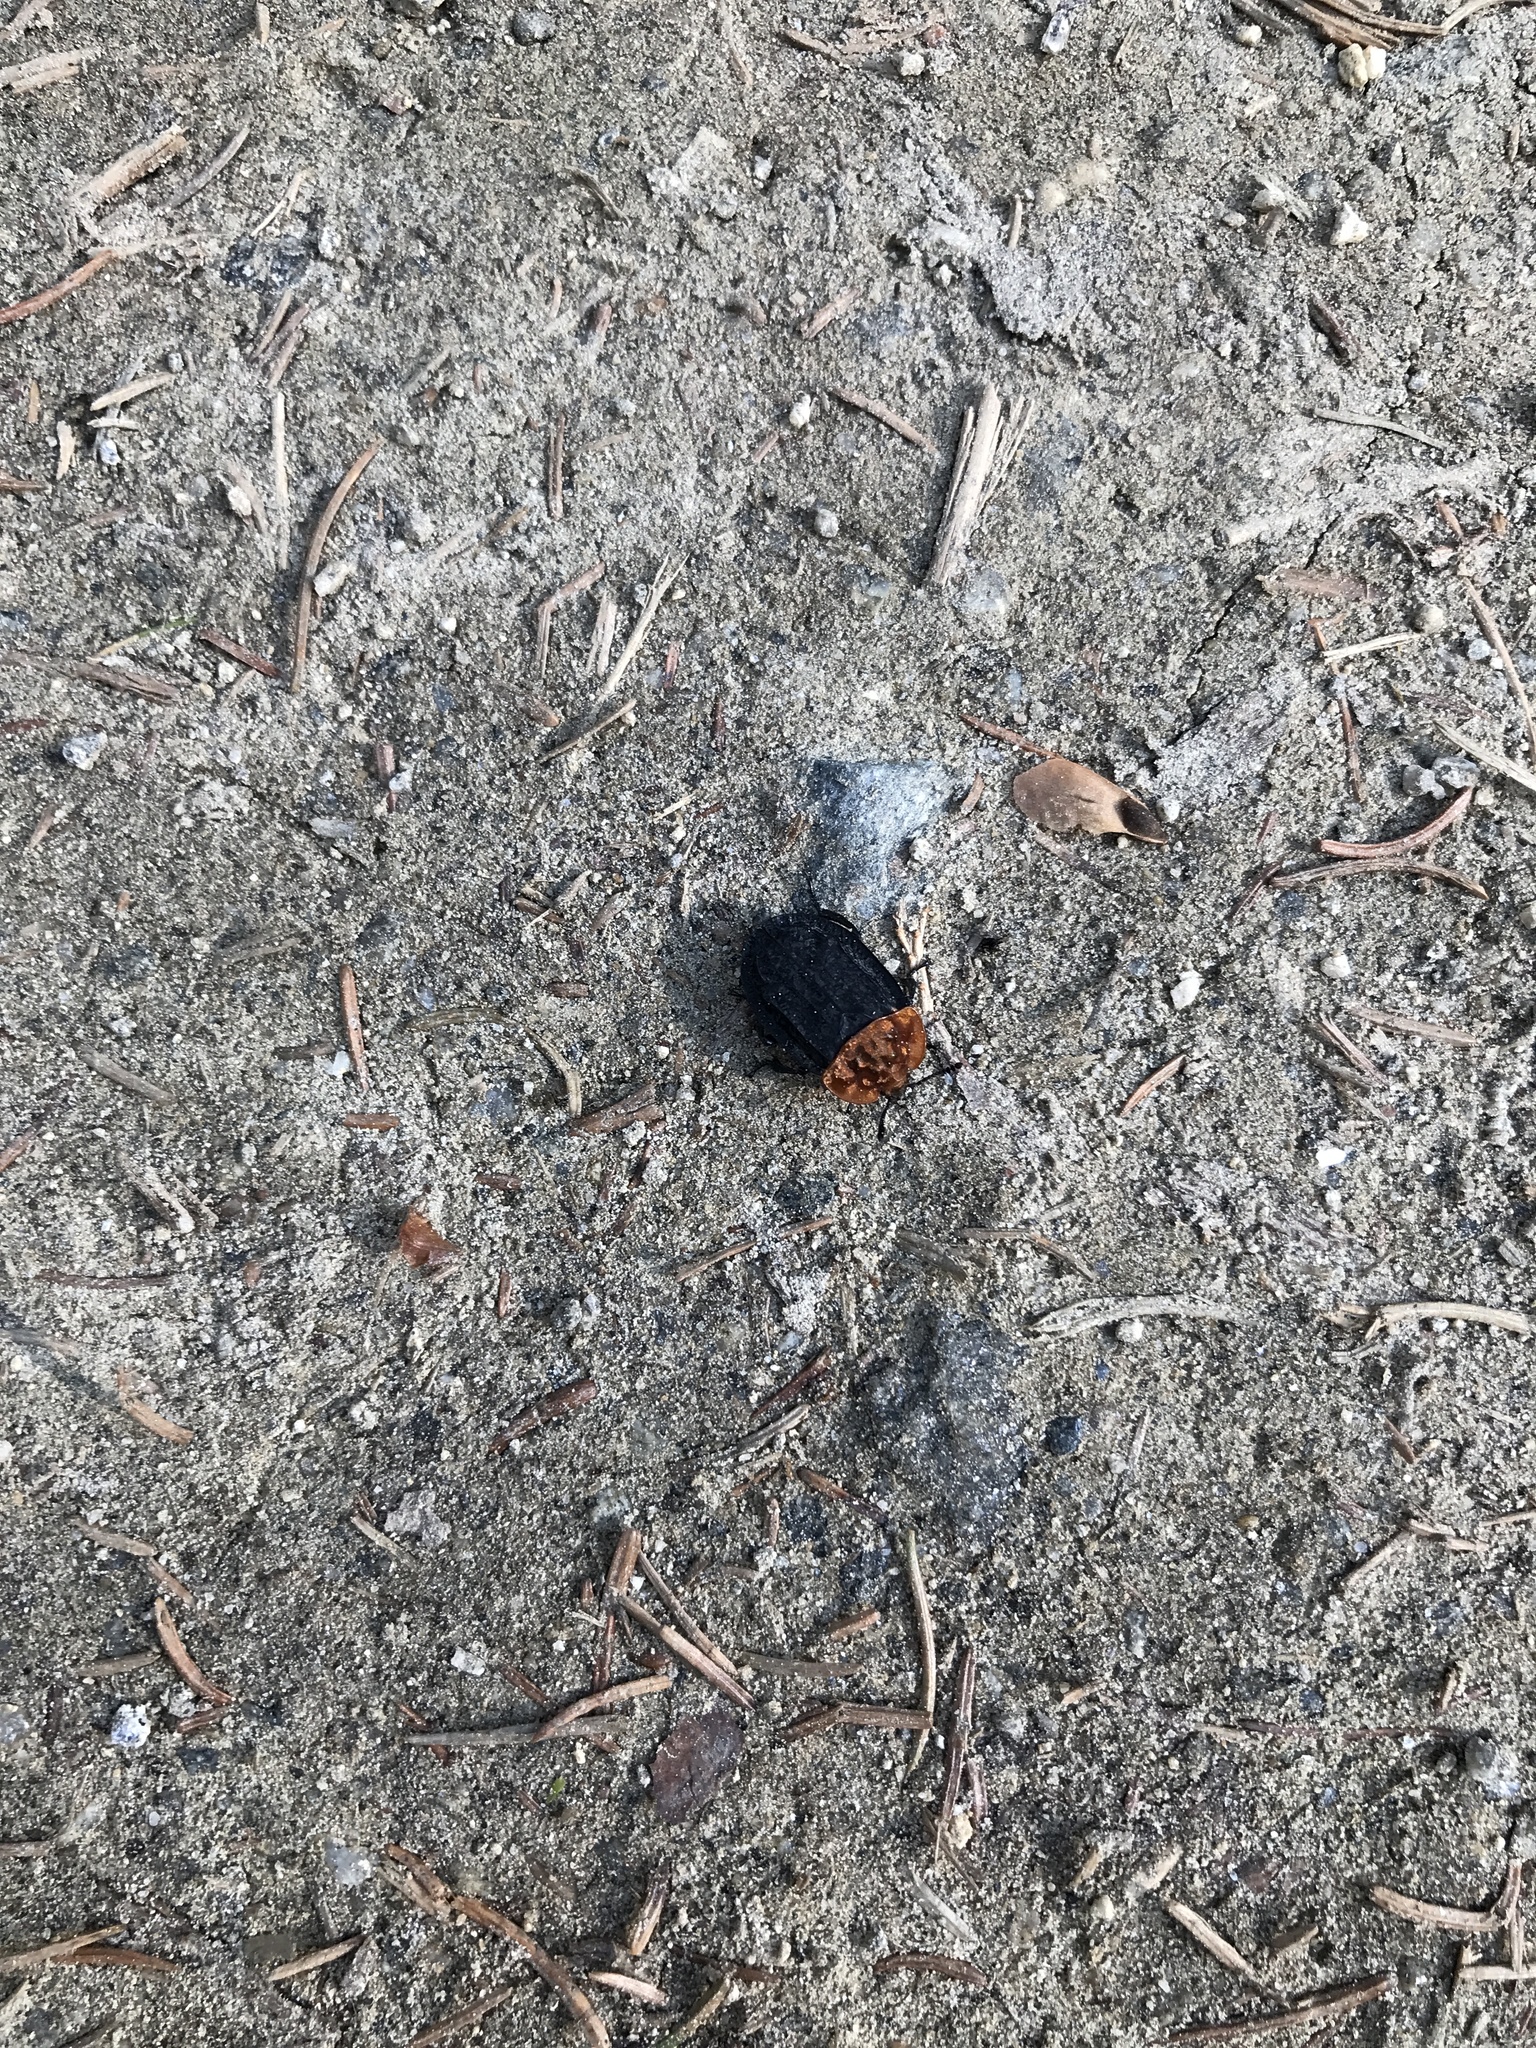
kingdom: Animalia
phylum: Arthropoda
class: Insecta
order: Coleoptera
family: Staphylinidae
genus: Oiceoptoma
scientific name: Oiceoptoma thoracicum
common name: Red-breasted carrion beetle
